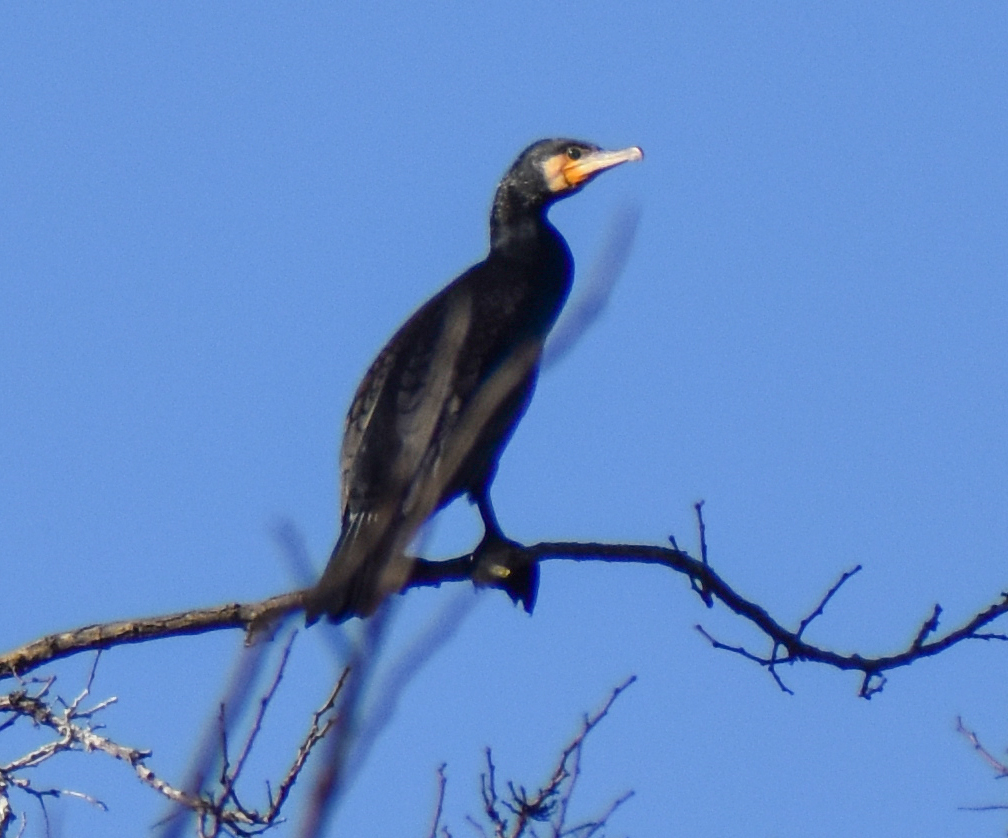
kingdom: Animalia
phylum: Chordata
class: Aves
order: Suliformes
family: Phalacrocoracidae
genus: Phalacrocorax
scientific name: Phalacrocorax carbo
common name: Great cormorant
